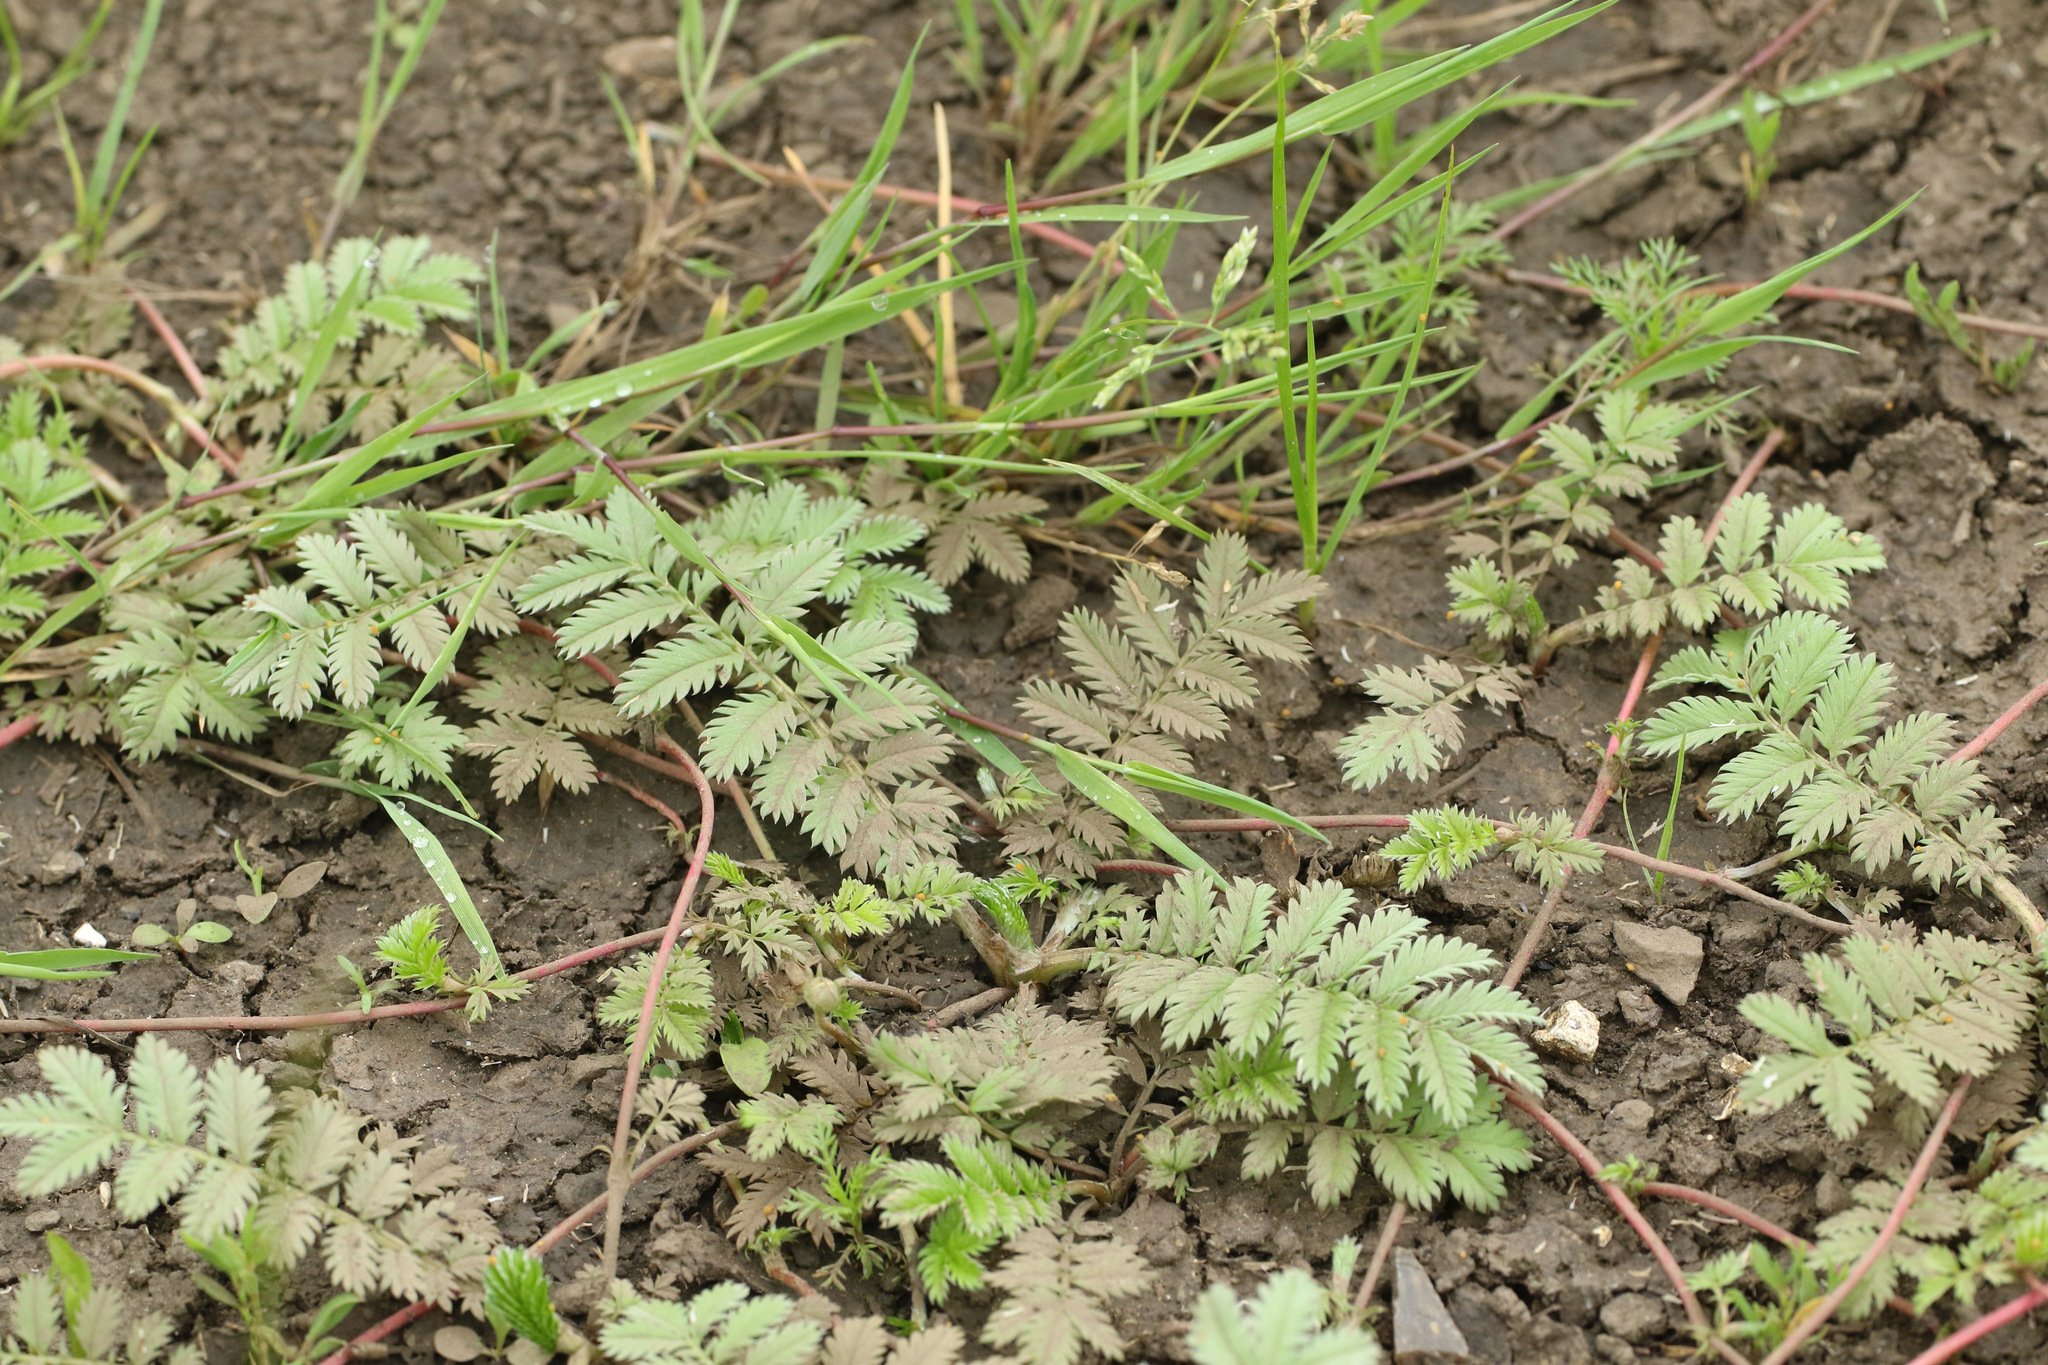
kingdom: Plantae
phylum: Tracheophyta
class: Magnoliopsida
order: Rosales
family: Rosaceae
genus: Argentina
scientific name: Argentina anserina
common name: Common silverweed
